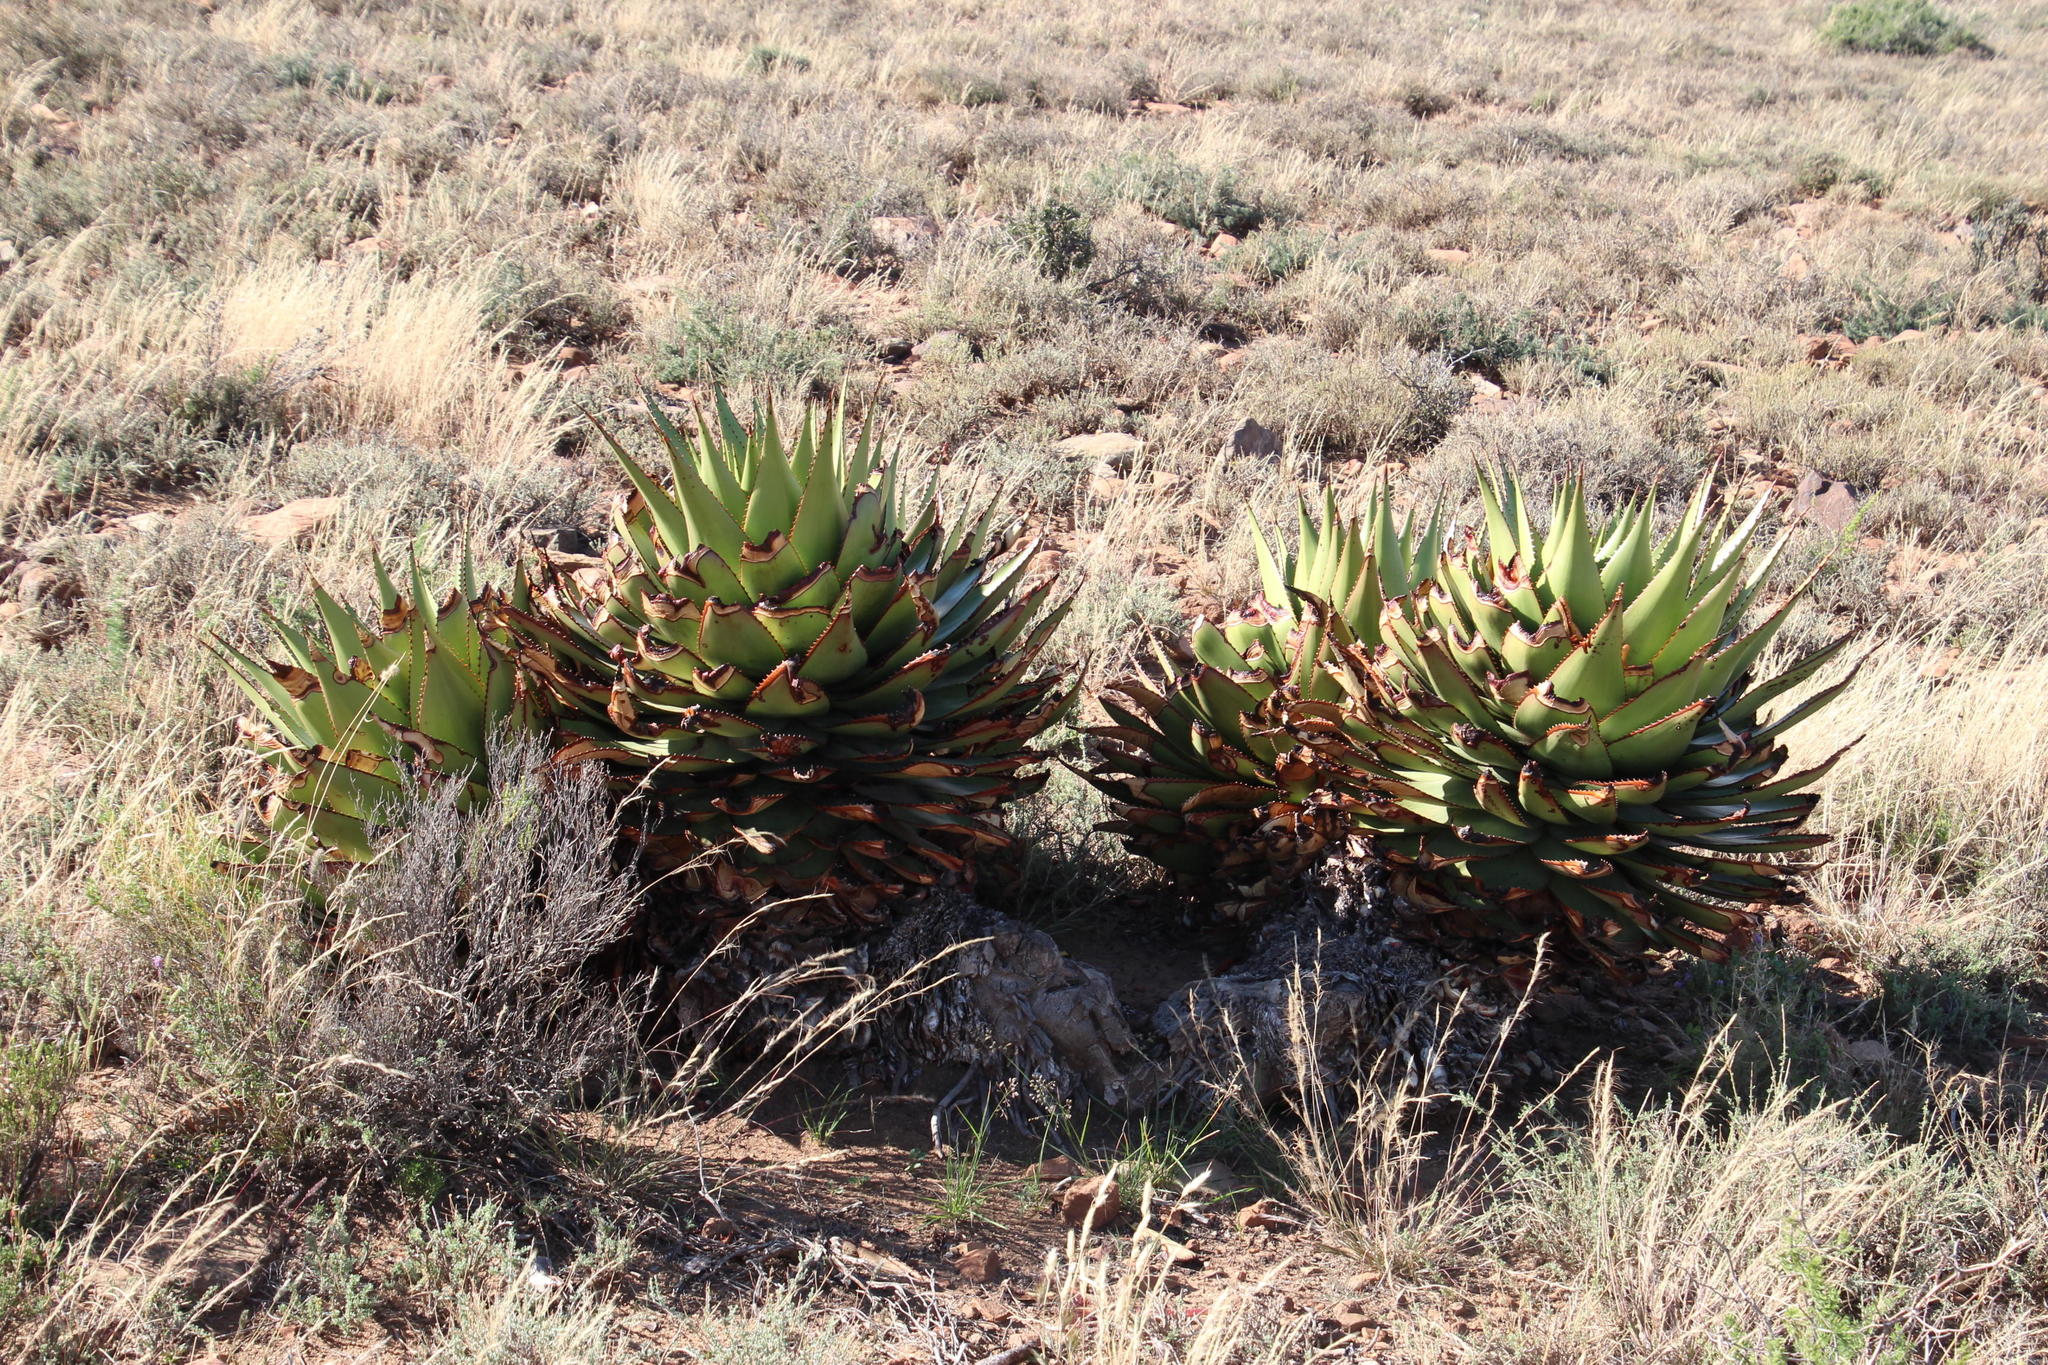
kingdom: Plantae
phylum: Tracheophyta
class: Liliopsida
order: Asparagales
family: Asphodelaceae
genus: Aloe
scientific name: Aloe broomii
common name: Berg alwyn
